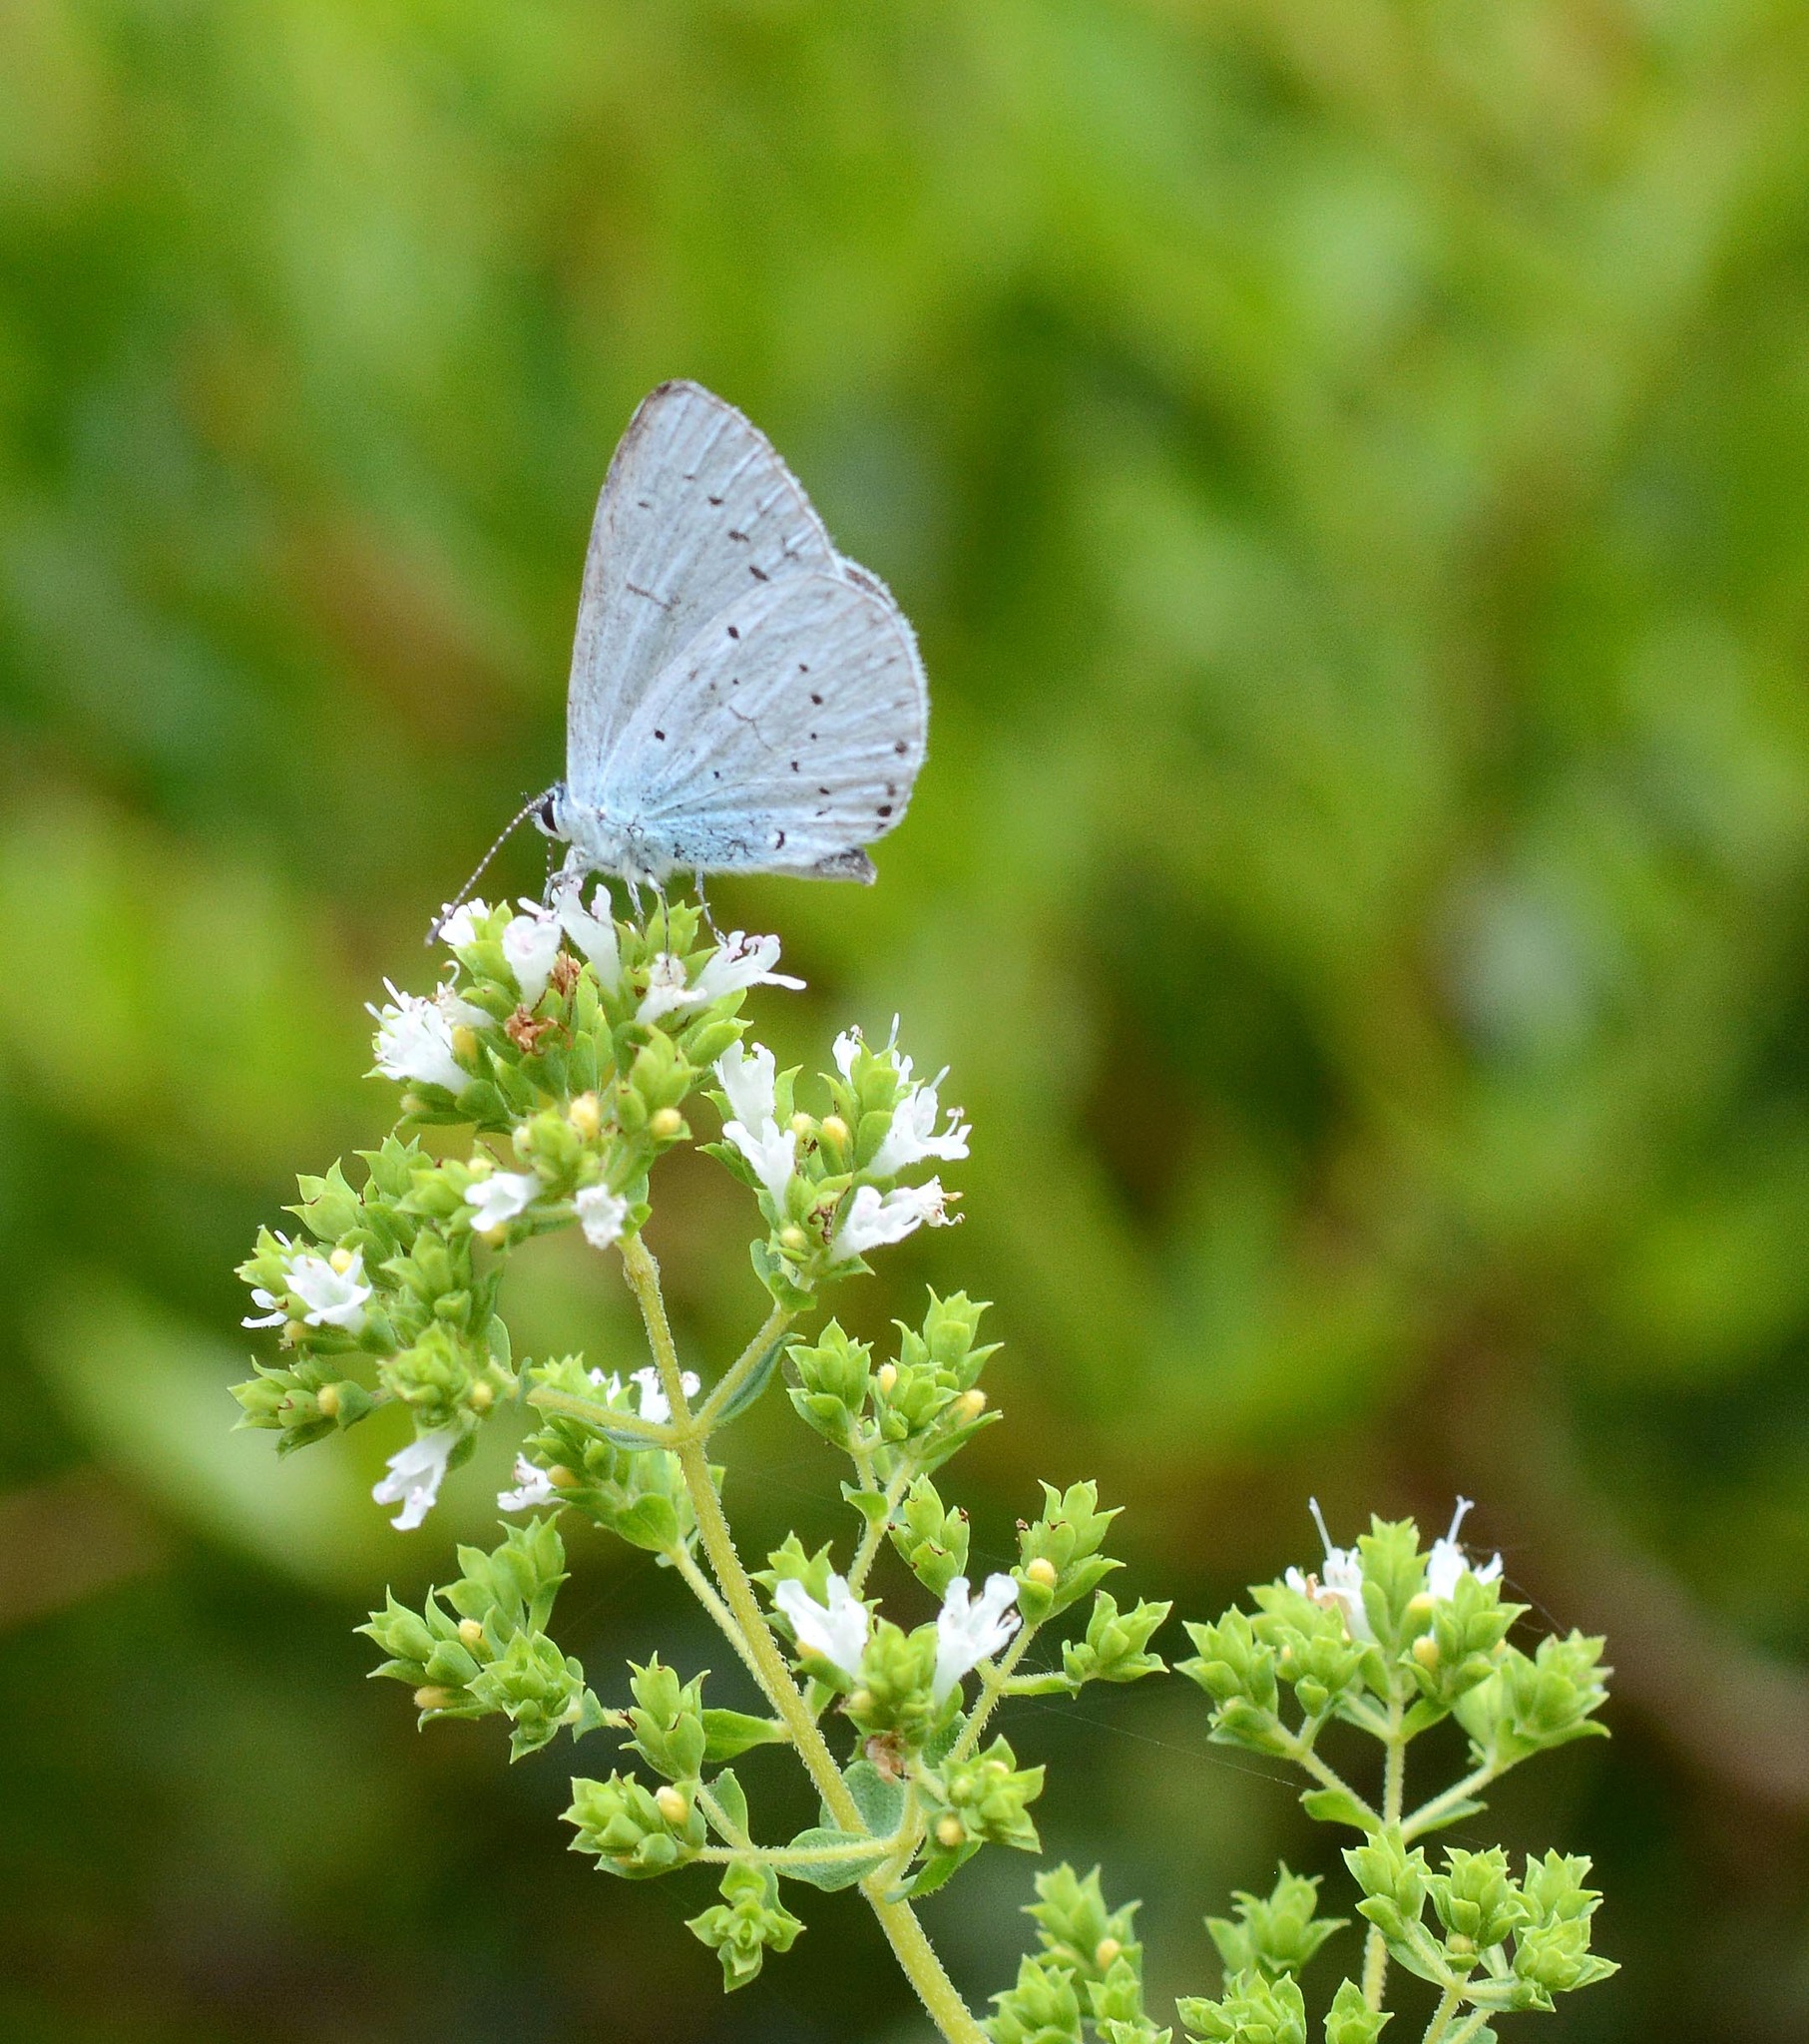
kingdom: Animalia
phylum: Arthropoda
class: Insecta
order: Lepidoptera
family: Lycaenidae
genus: Celastrina
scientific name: Celastrina argiolus
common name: Holly blue
